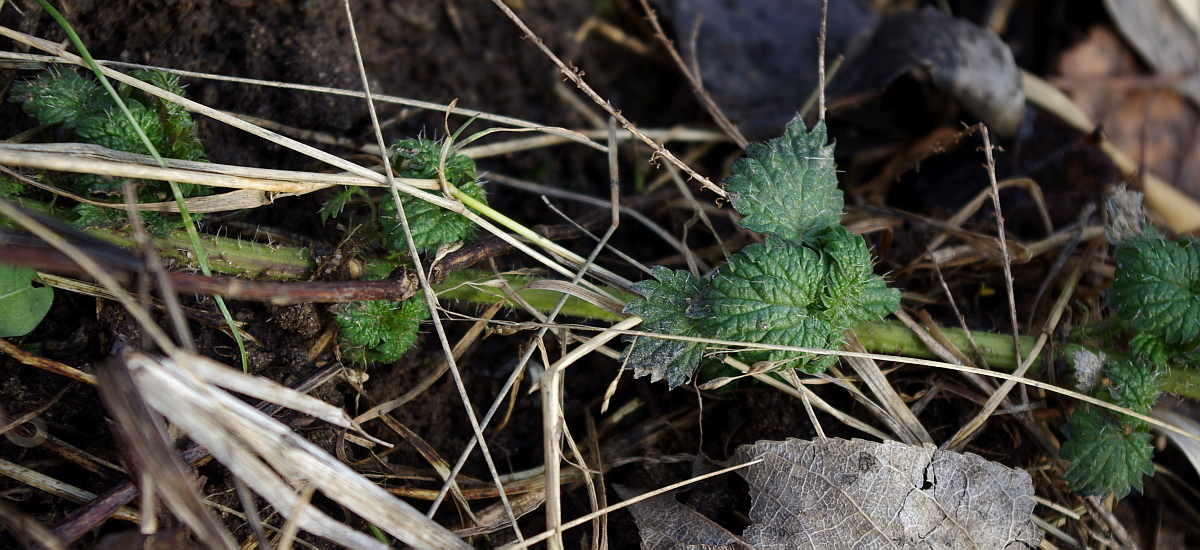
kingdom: Plantae
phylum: Tracheophyta
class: Magnoliopsida
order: Rosales
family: Urticaceae
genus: Urtica
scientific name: Urtica dioica
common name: Common nettle
